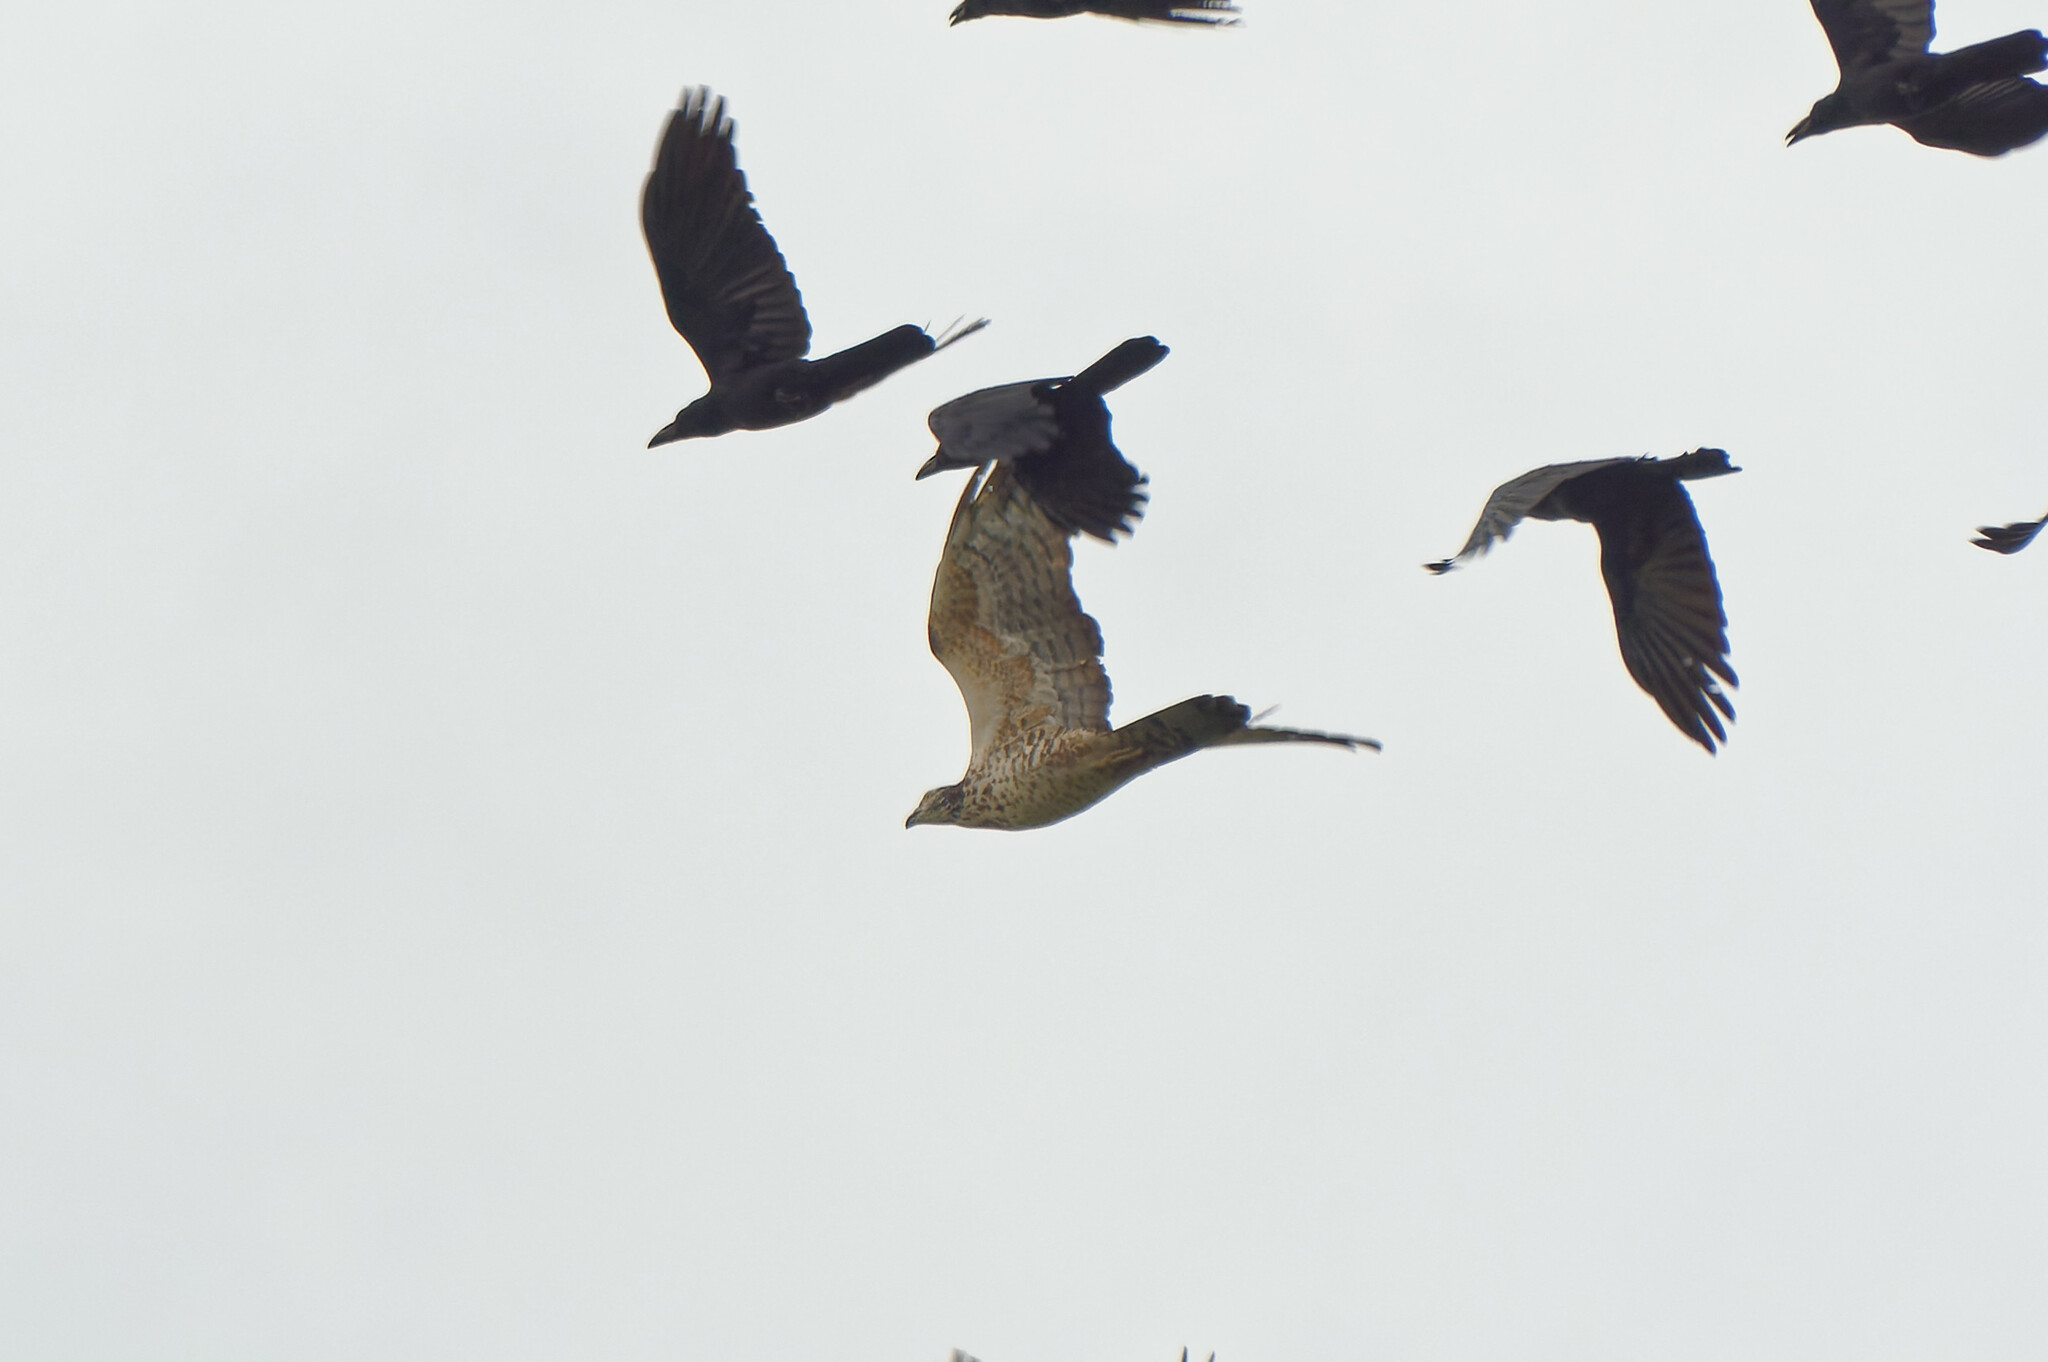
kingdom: Animalia
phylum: Chordata
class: Aves
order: Accipitriformes
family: Accipitridae
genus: Pernis
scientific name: Pernis ptilorhynchus
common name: Crested honey buzzard
